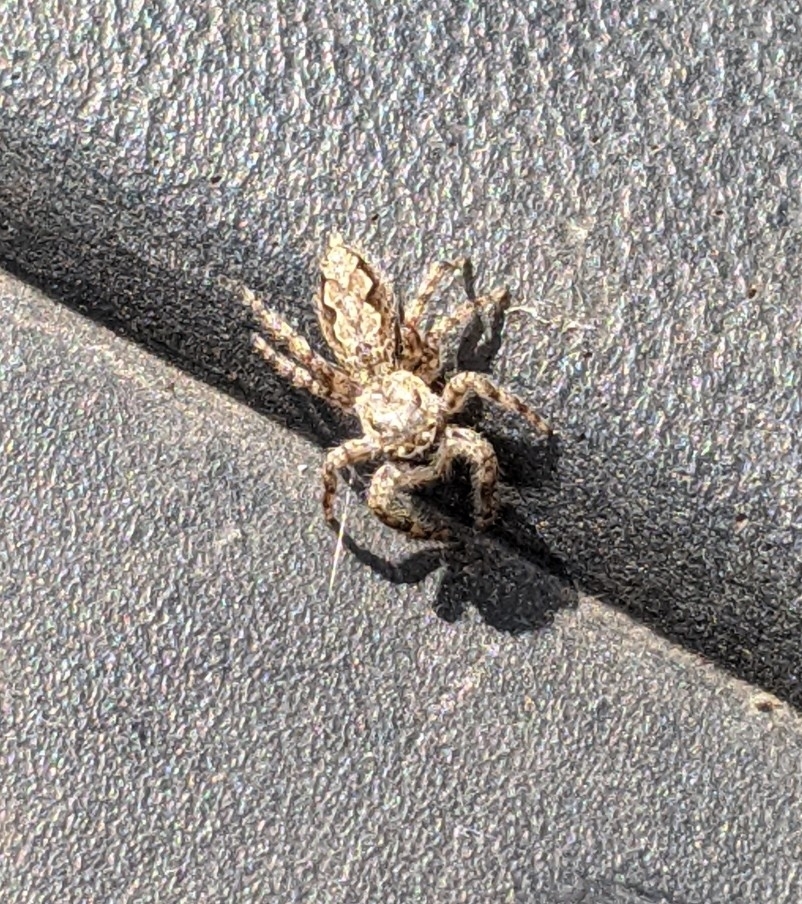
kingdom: Animalia
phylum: Arthropoda
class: Arachnida
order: Araneae
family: Salticidae
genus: Platycryptus
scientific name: Platycryptus undatus
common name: Tan jumping spider
